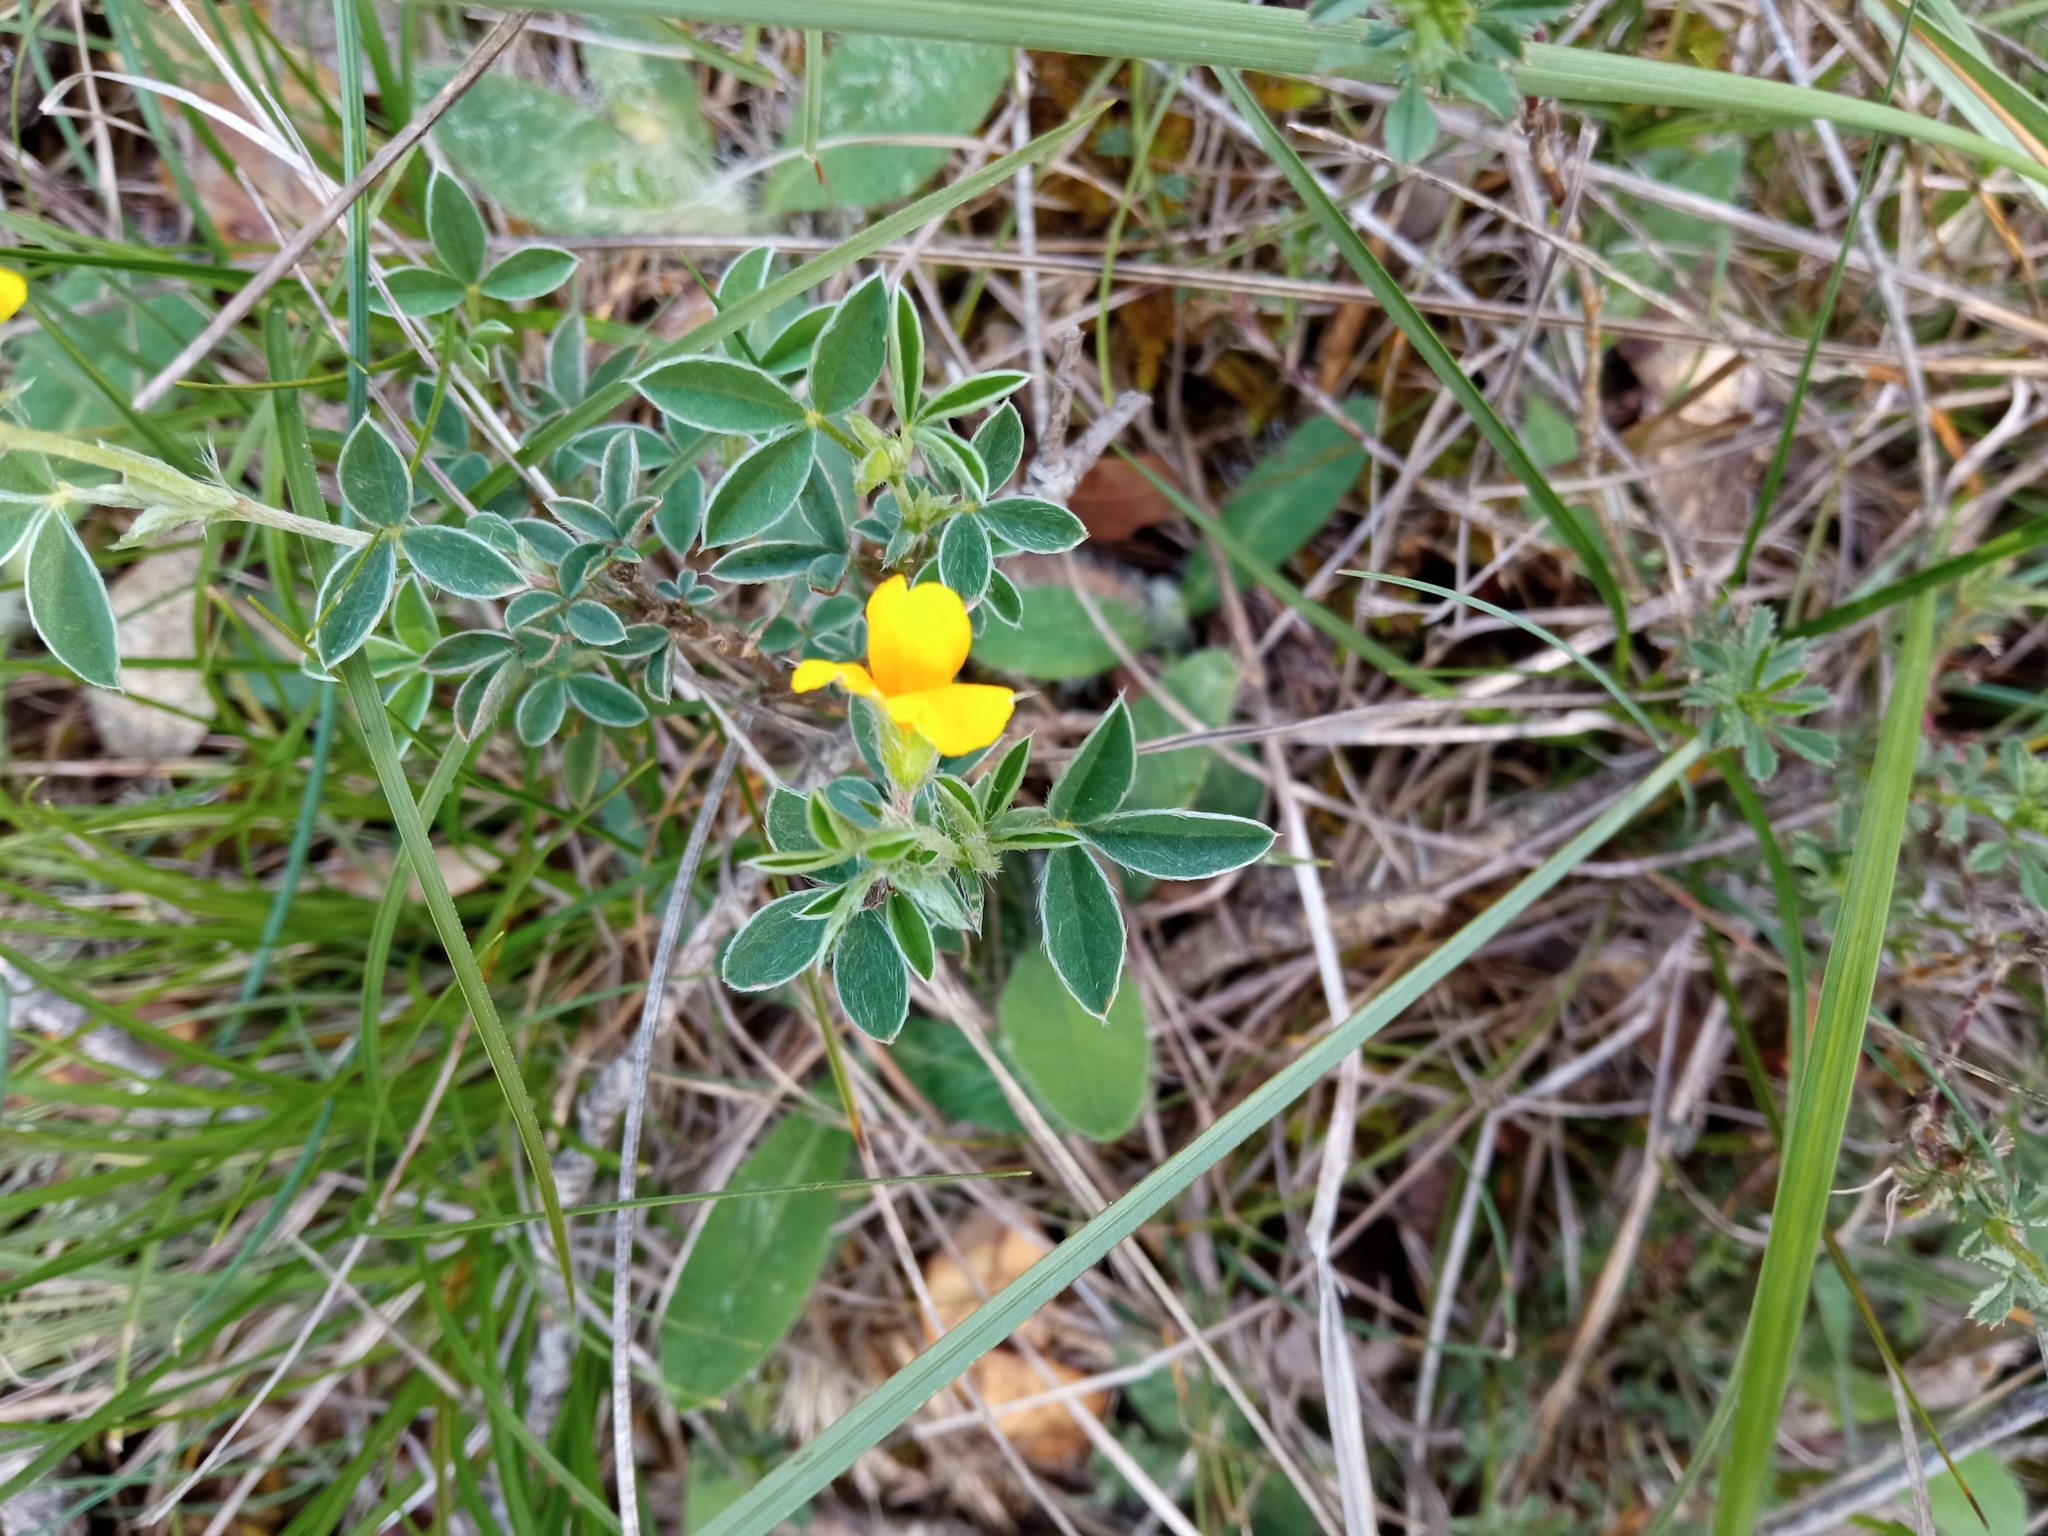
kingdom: Plantae
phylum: Tracheophyta
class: Magnoliopsida
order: Fabales
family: Fabaceae
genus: Argyrolobium
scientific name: Argyrolobium zanonii
